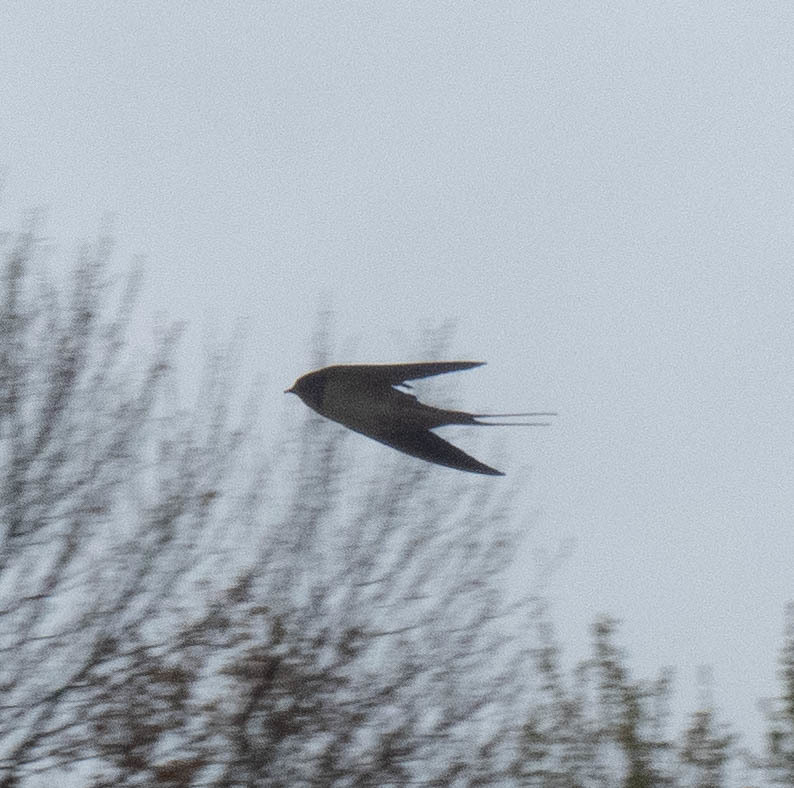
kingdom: Animalia
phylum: Chordata
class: Aves
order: Passeriformes
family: Hirundinidae
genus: Hirundo
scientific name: Hirundo rustica
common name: Barn swallow
